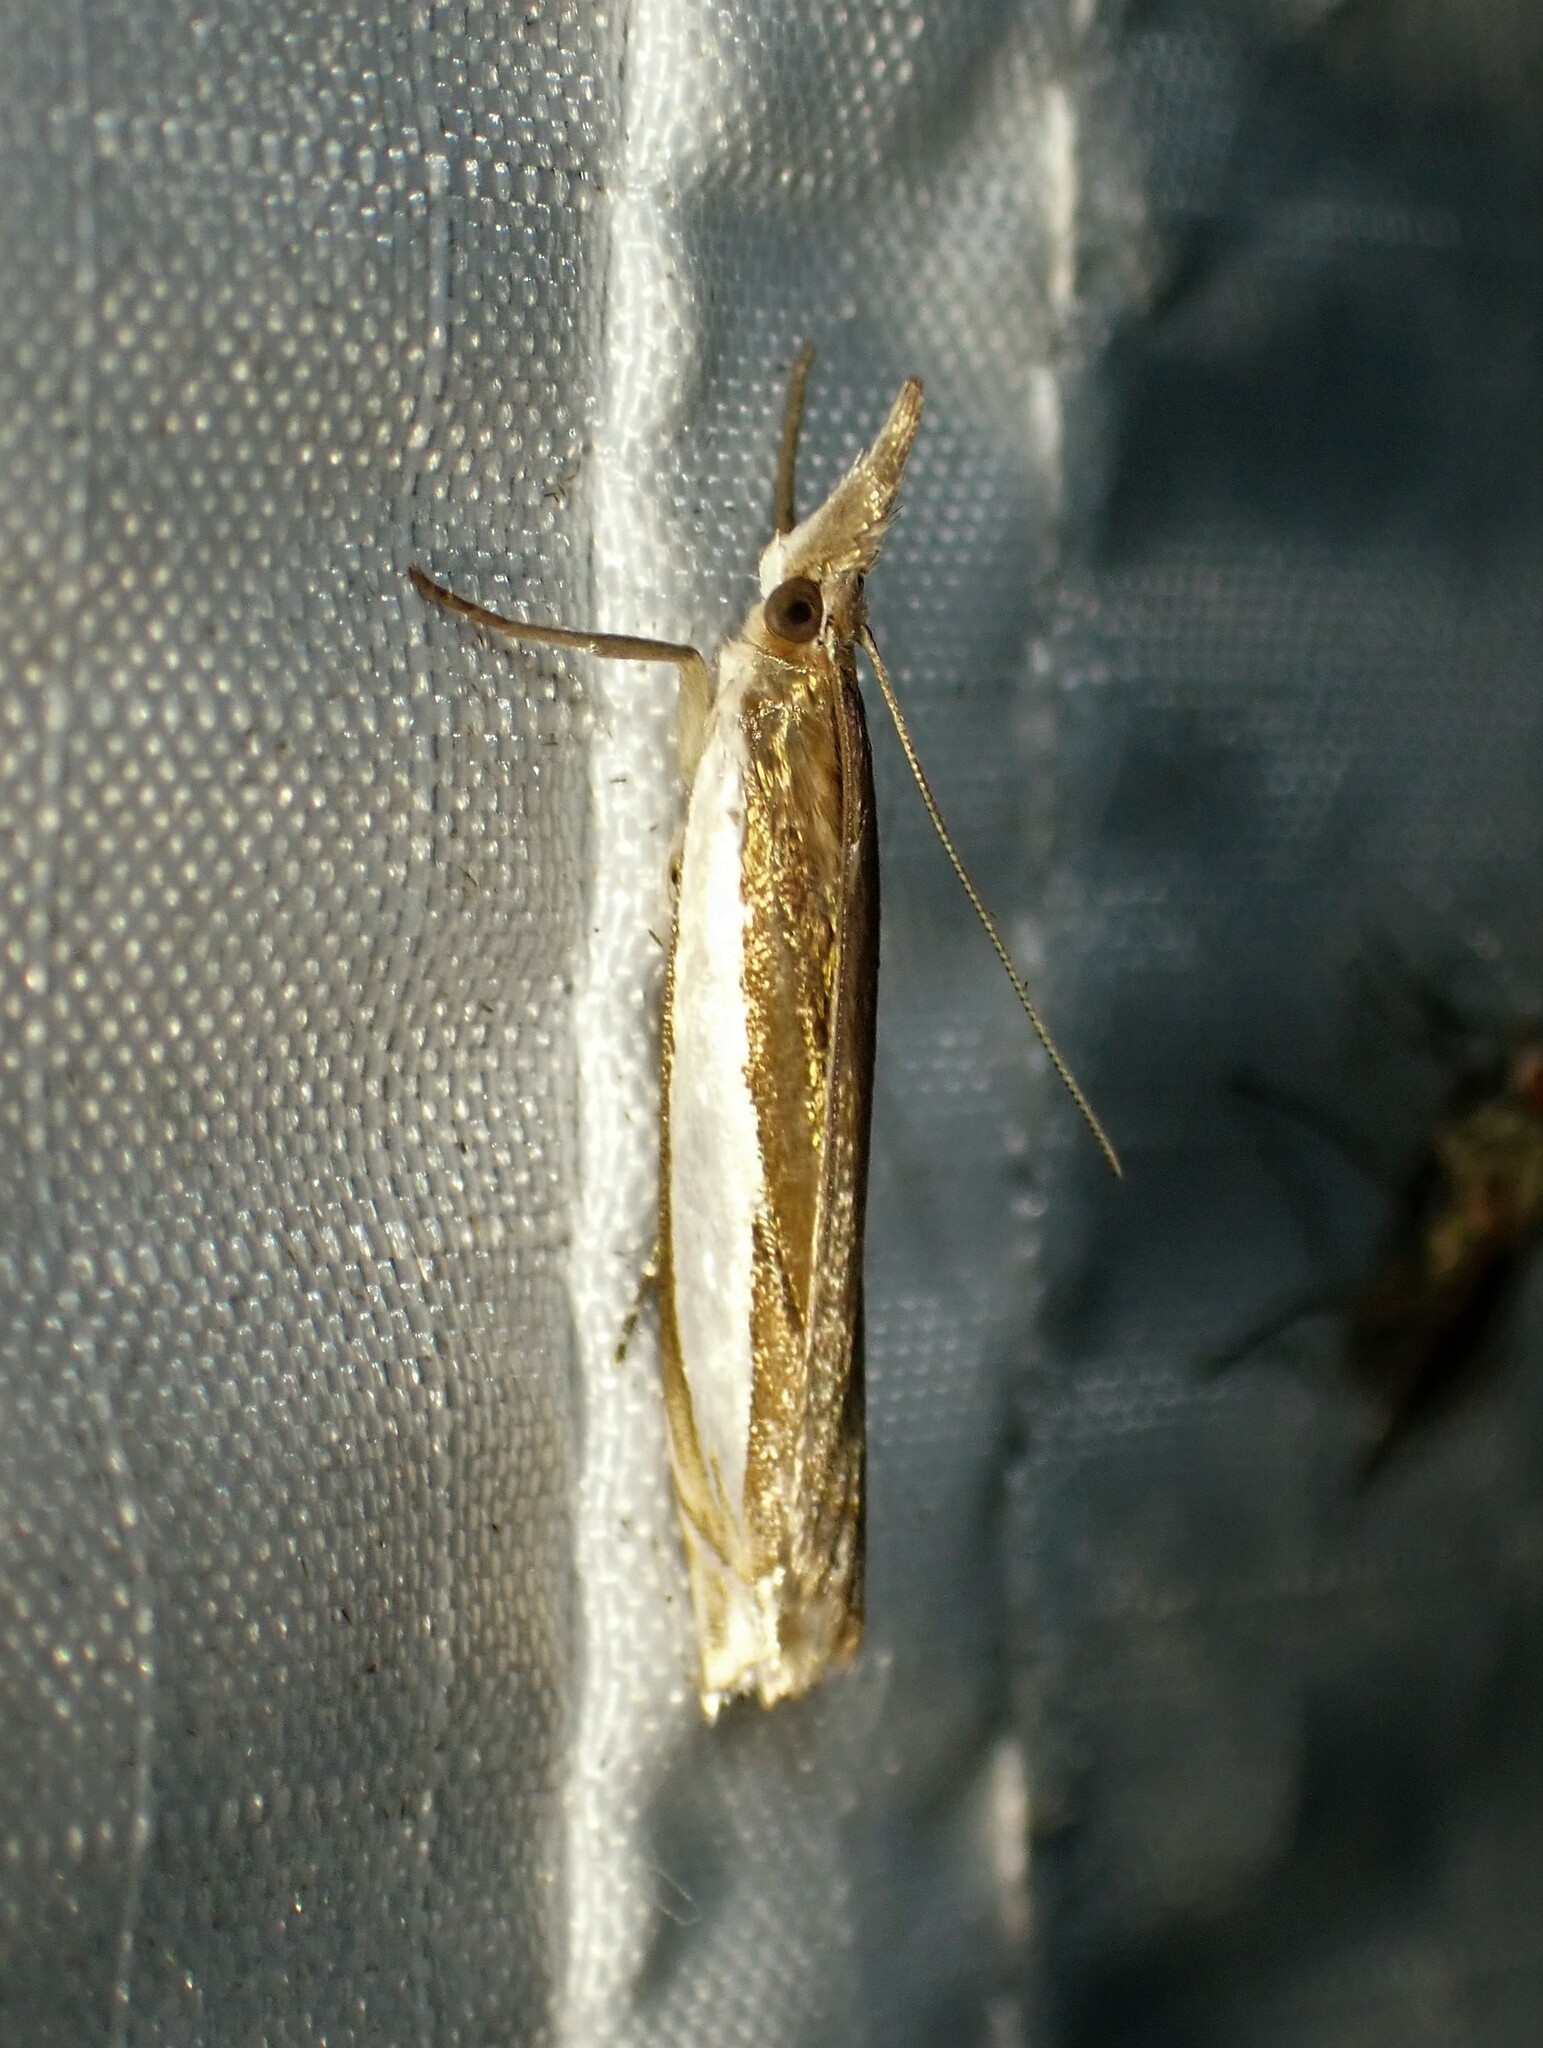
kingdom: Animalia
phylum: Arthropoda
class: Insecta
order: Lepidoptera
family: Crambidae
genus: Crambus
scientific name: Crambus leachellus
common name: Leach's grass-veneer
